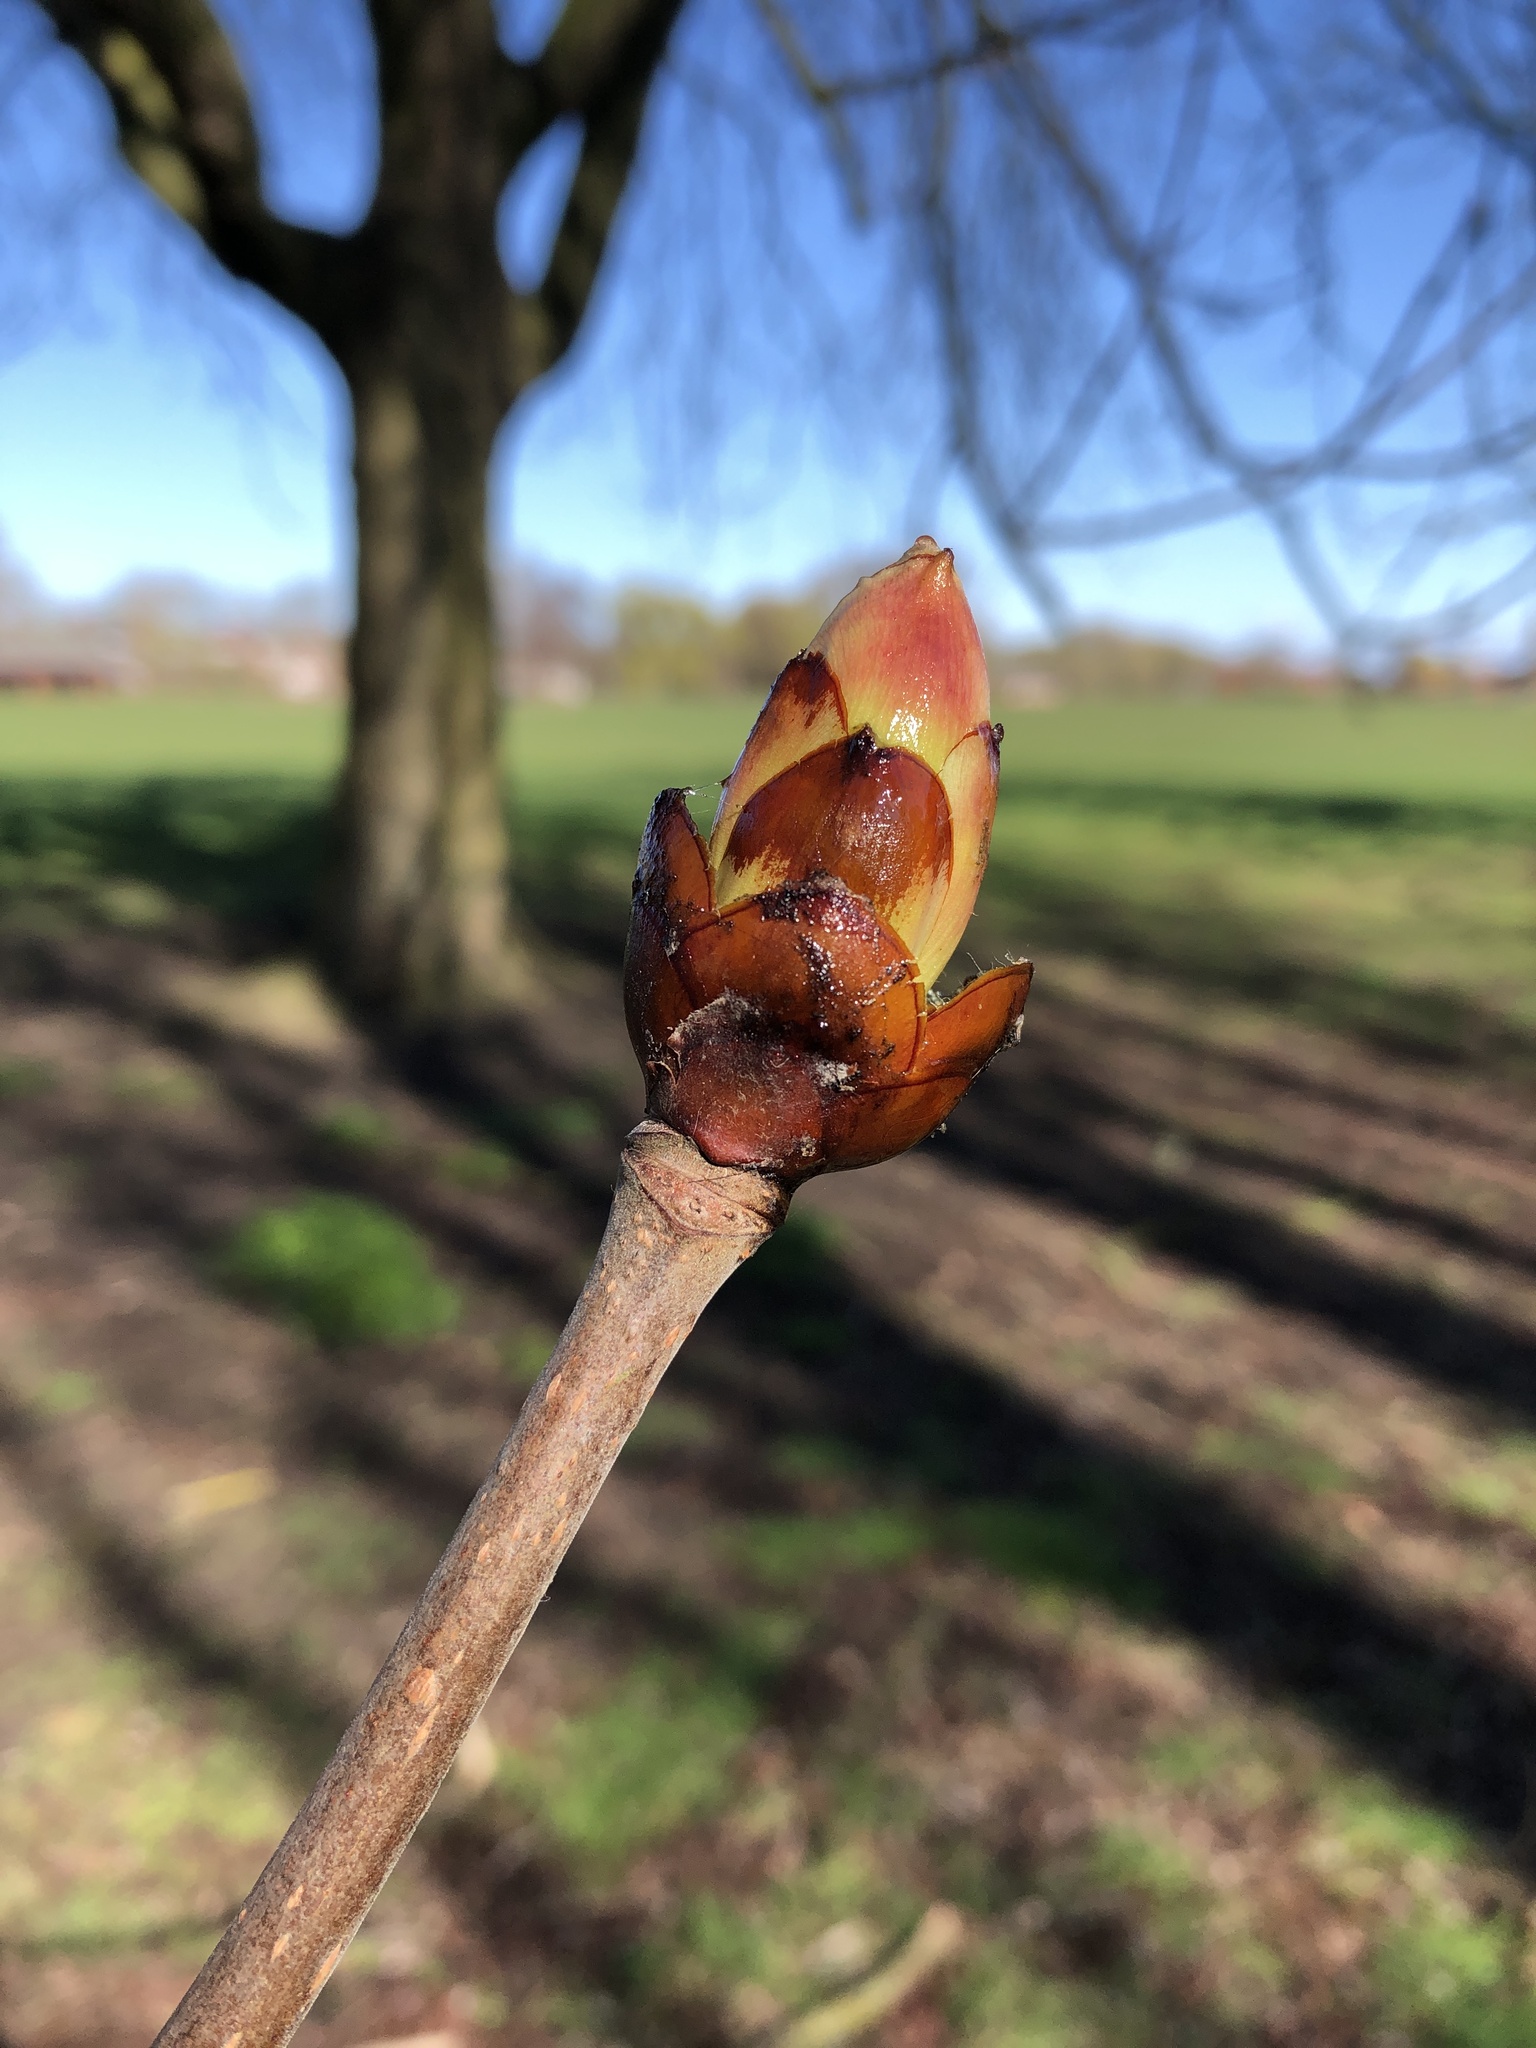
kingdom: Plantae
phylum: Tracheophyta
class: Magnoliopsida
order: Sapindales
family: Sapindaceae
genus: Aesculus
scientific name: Aesculus hippocastanum
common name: Horse-chestnut
